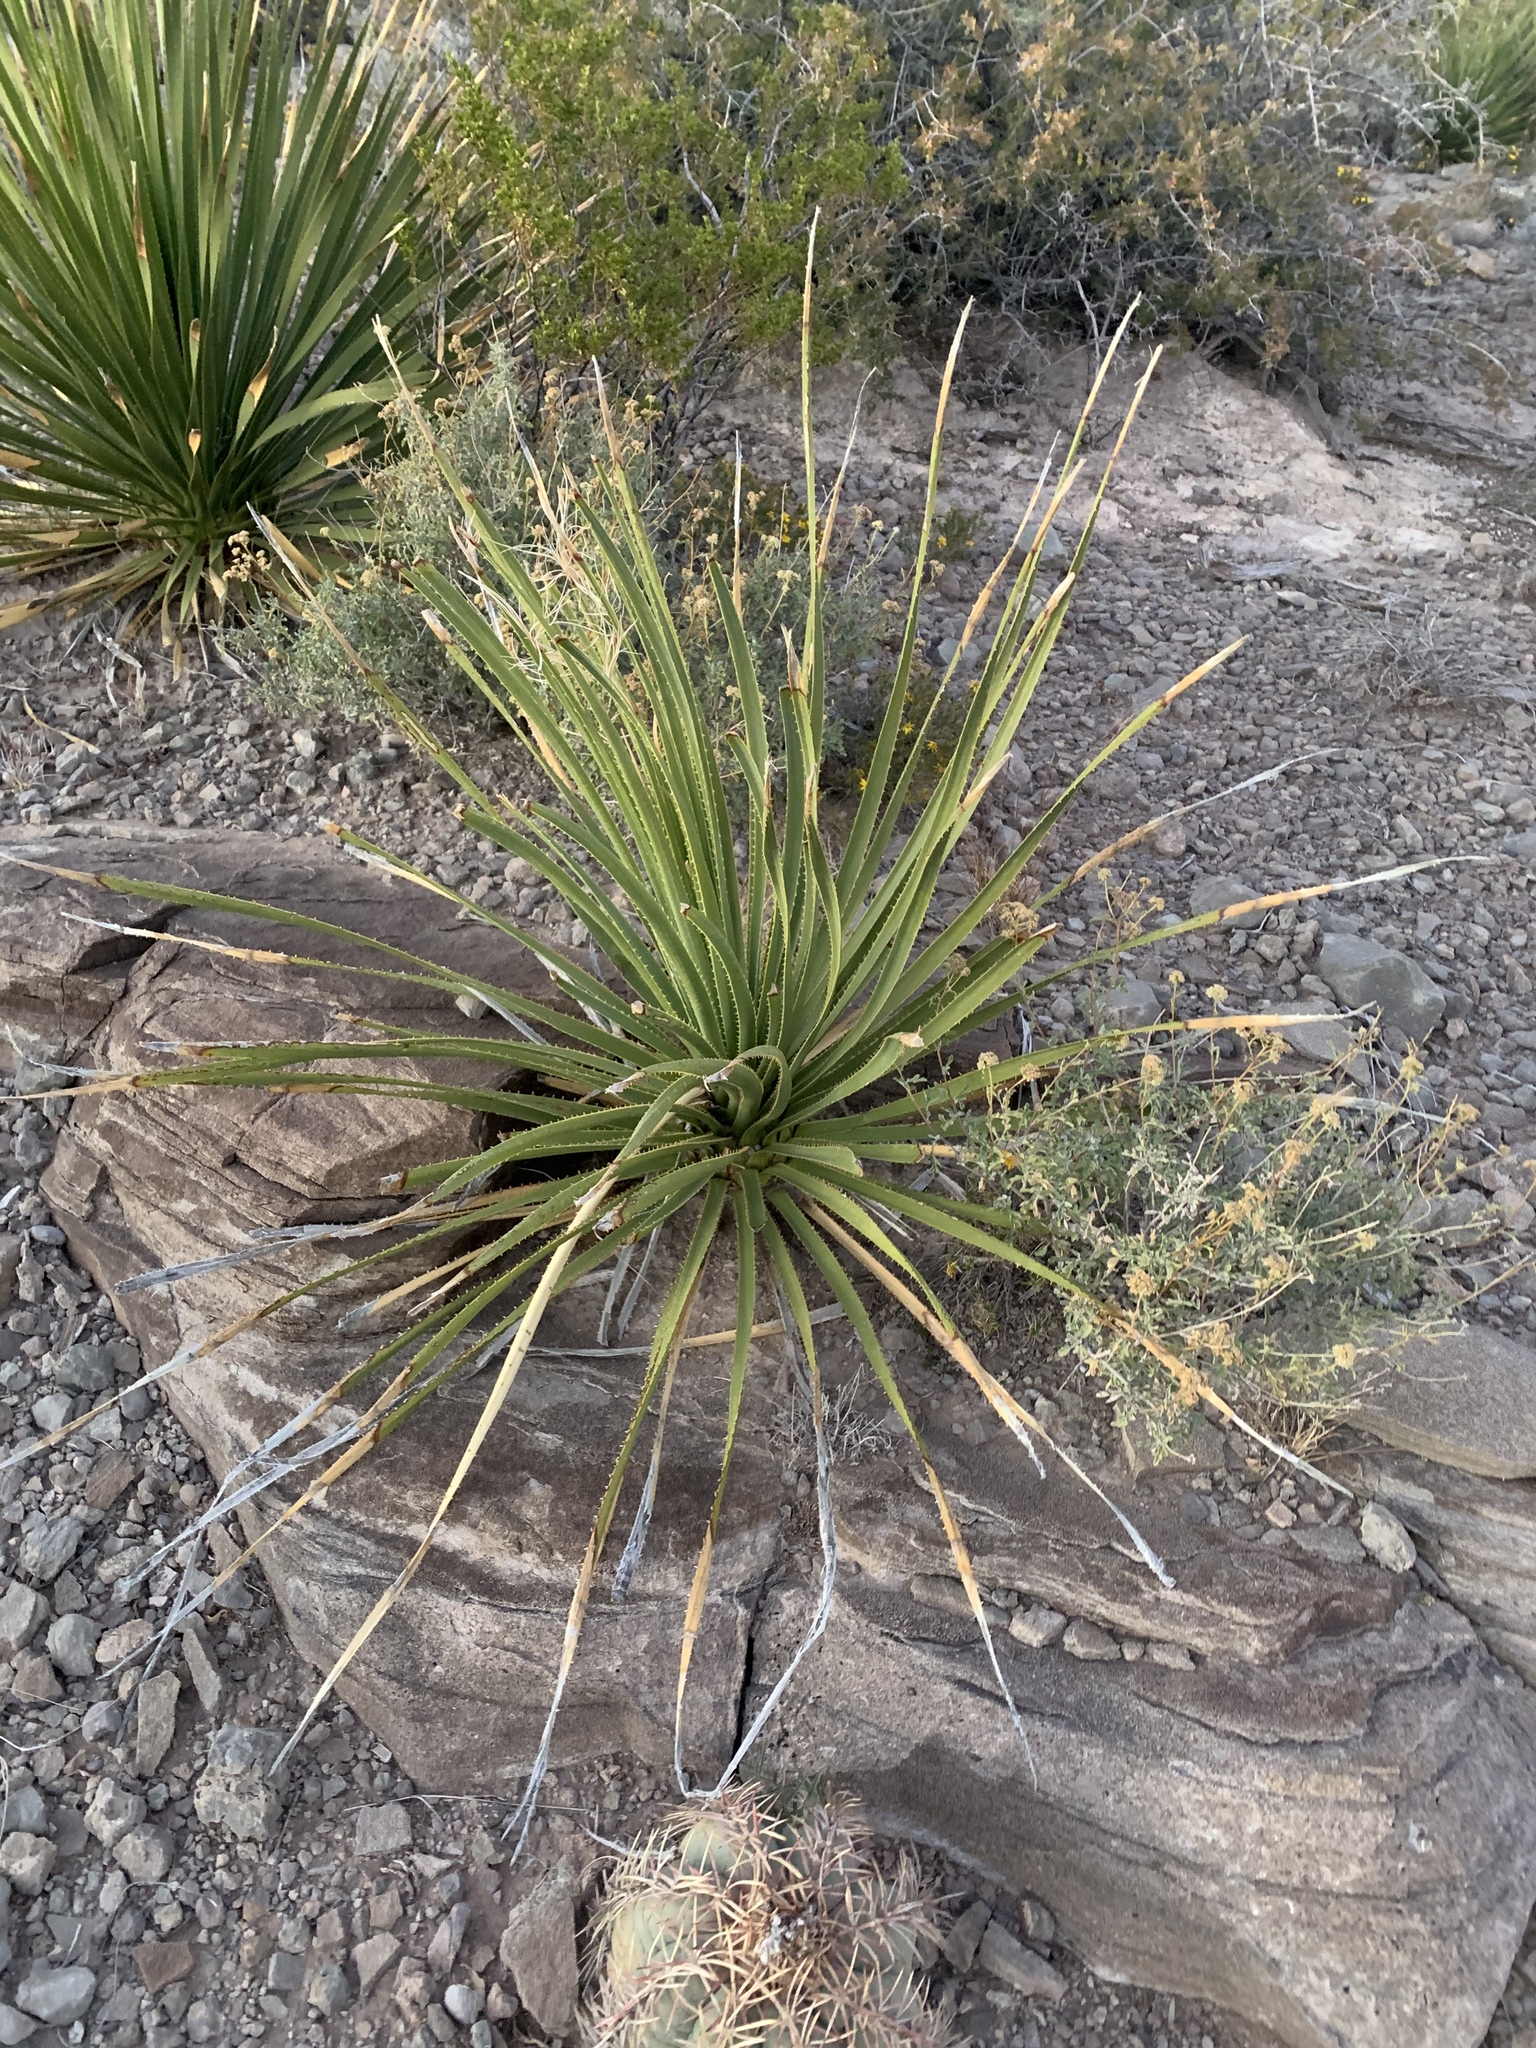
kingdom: Plantae
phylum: Tracheophyta
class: Liliopsida
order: Asparagales
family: Asparagaceae
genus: Dasylirion
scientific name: Dasylirion wheeleri
